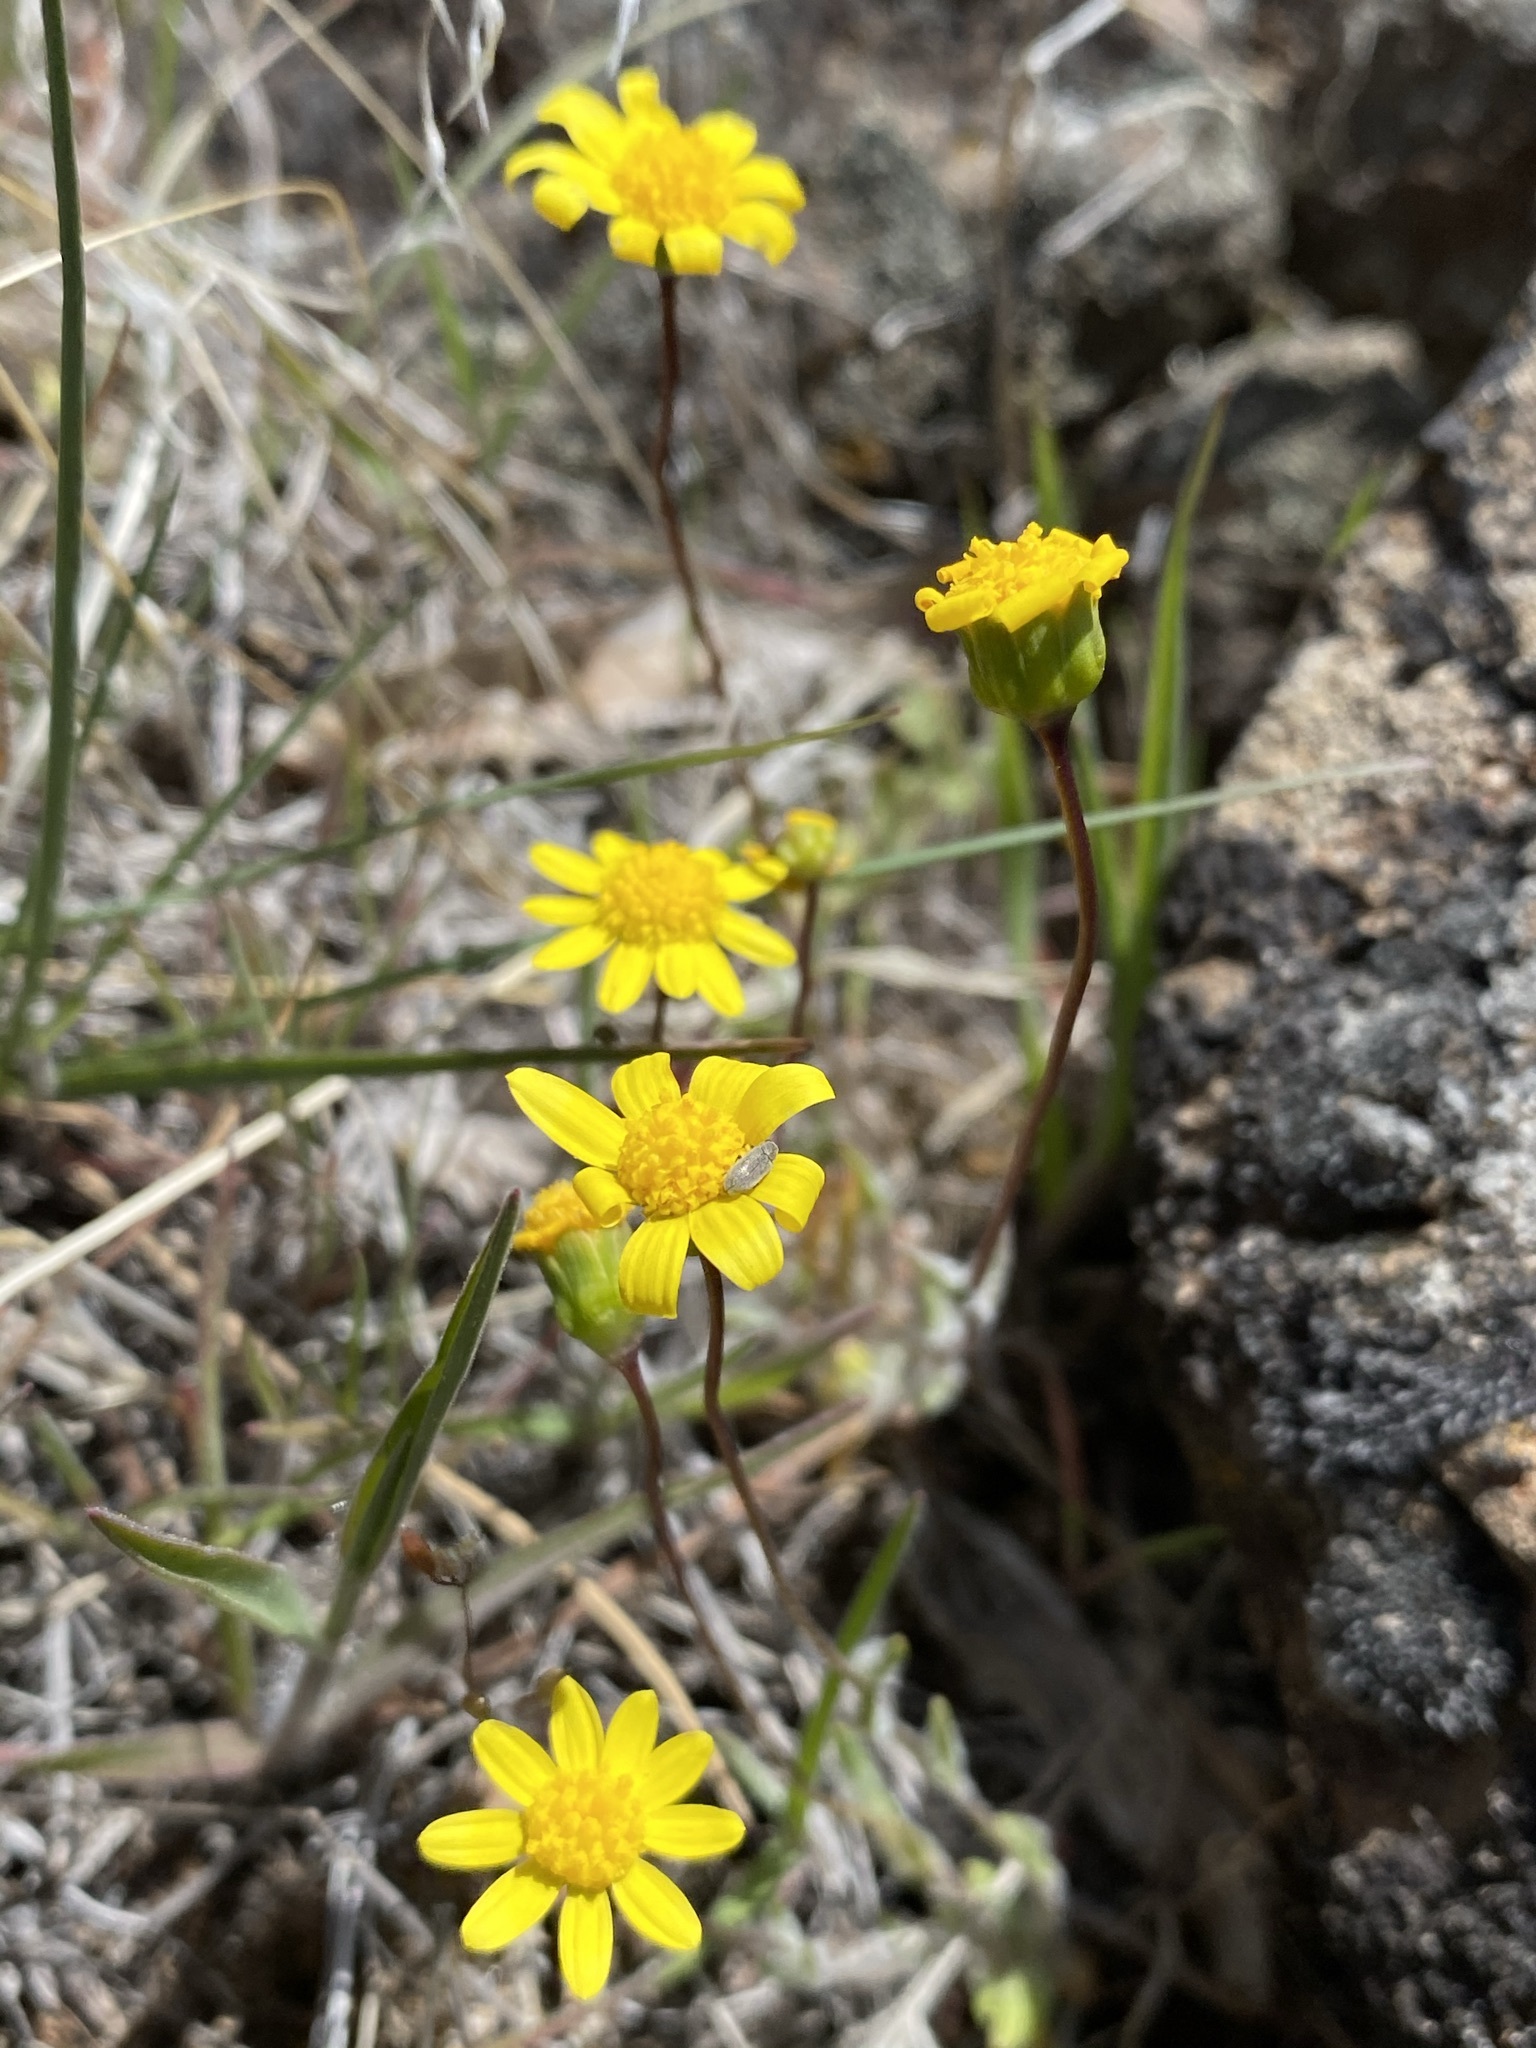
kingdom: Plantae
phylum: Tracheophyta
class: Magnoliopsida
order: Asterales
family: Asteraceae
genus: Crocidium
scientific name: Crocidium multicaule
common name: Common spring gold
